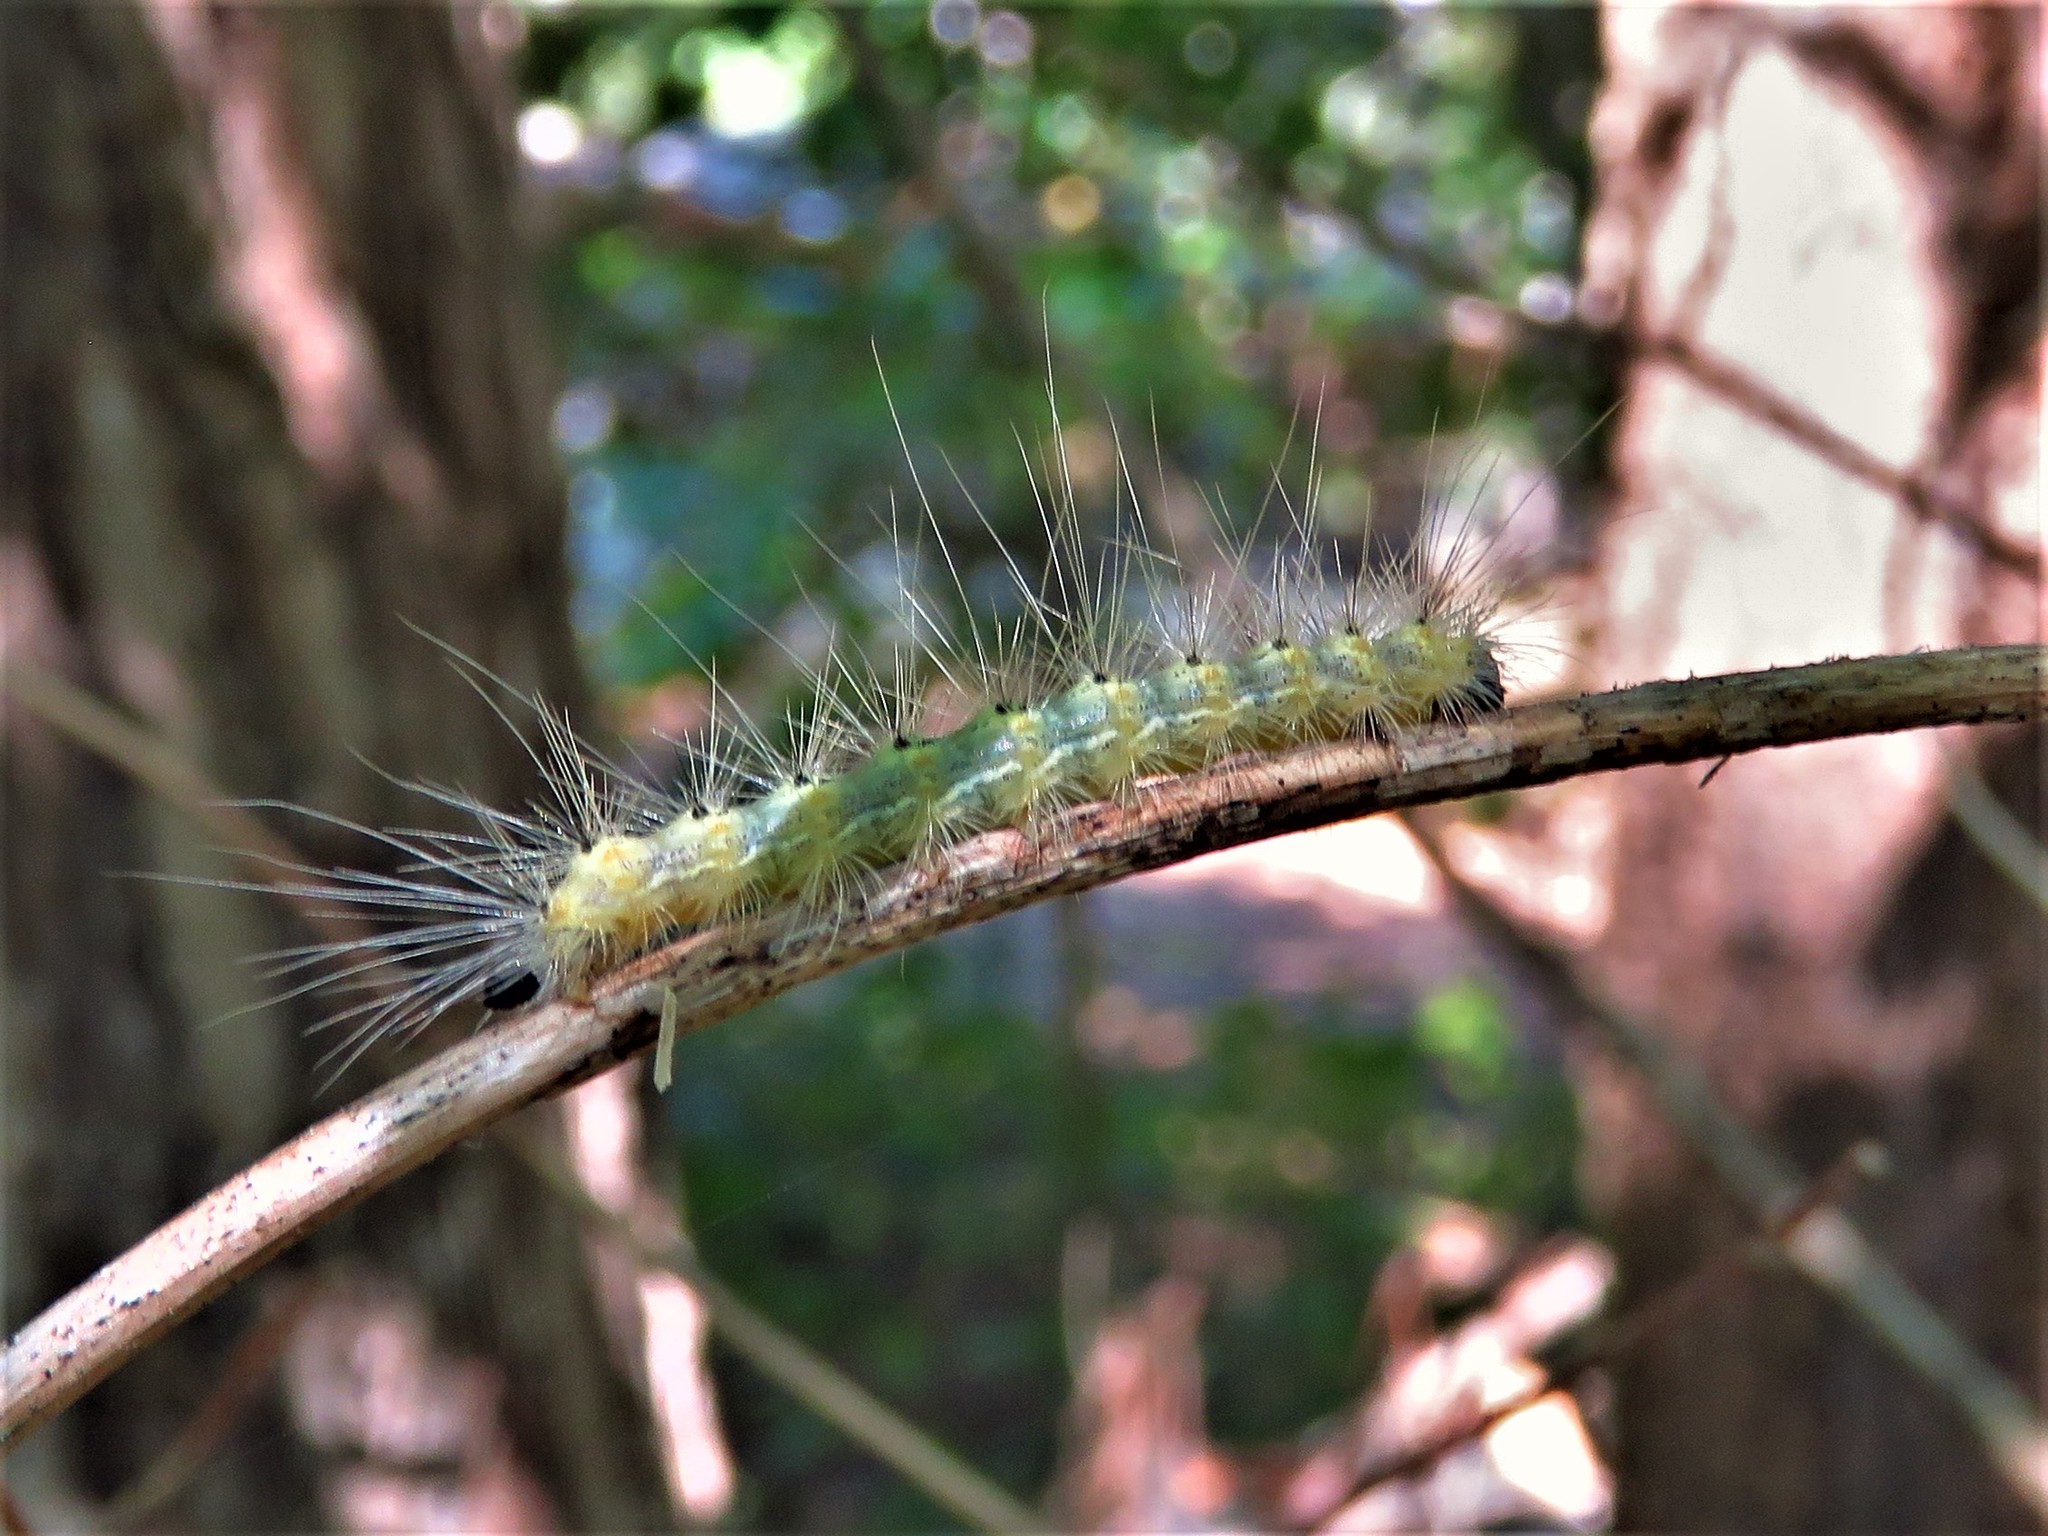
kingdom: Animalia
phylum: Arthropoda
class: Insecta
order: Lepidoptera
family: Erebidae
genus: Hyphantria
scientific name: Hyphantria cunea
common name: American white moth
